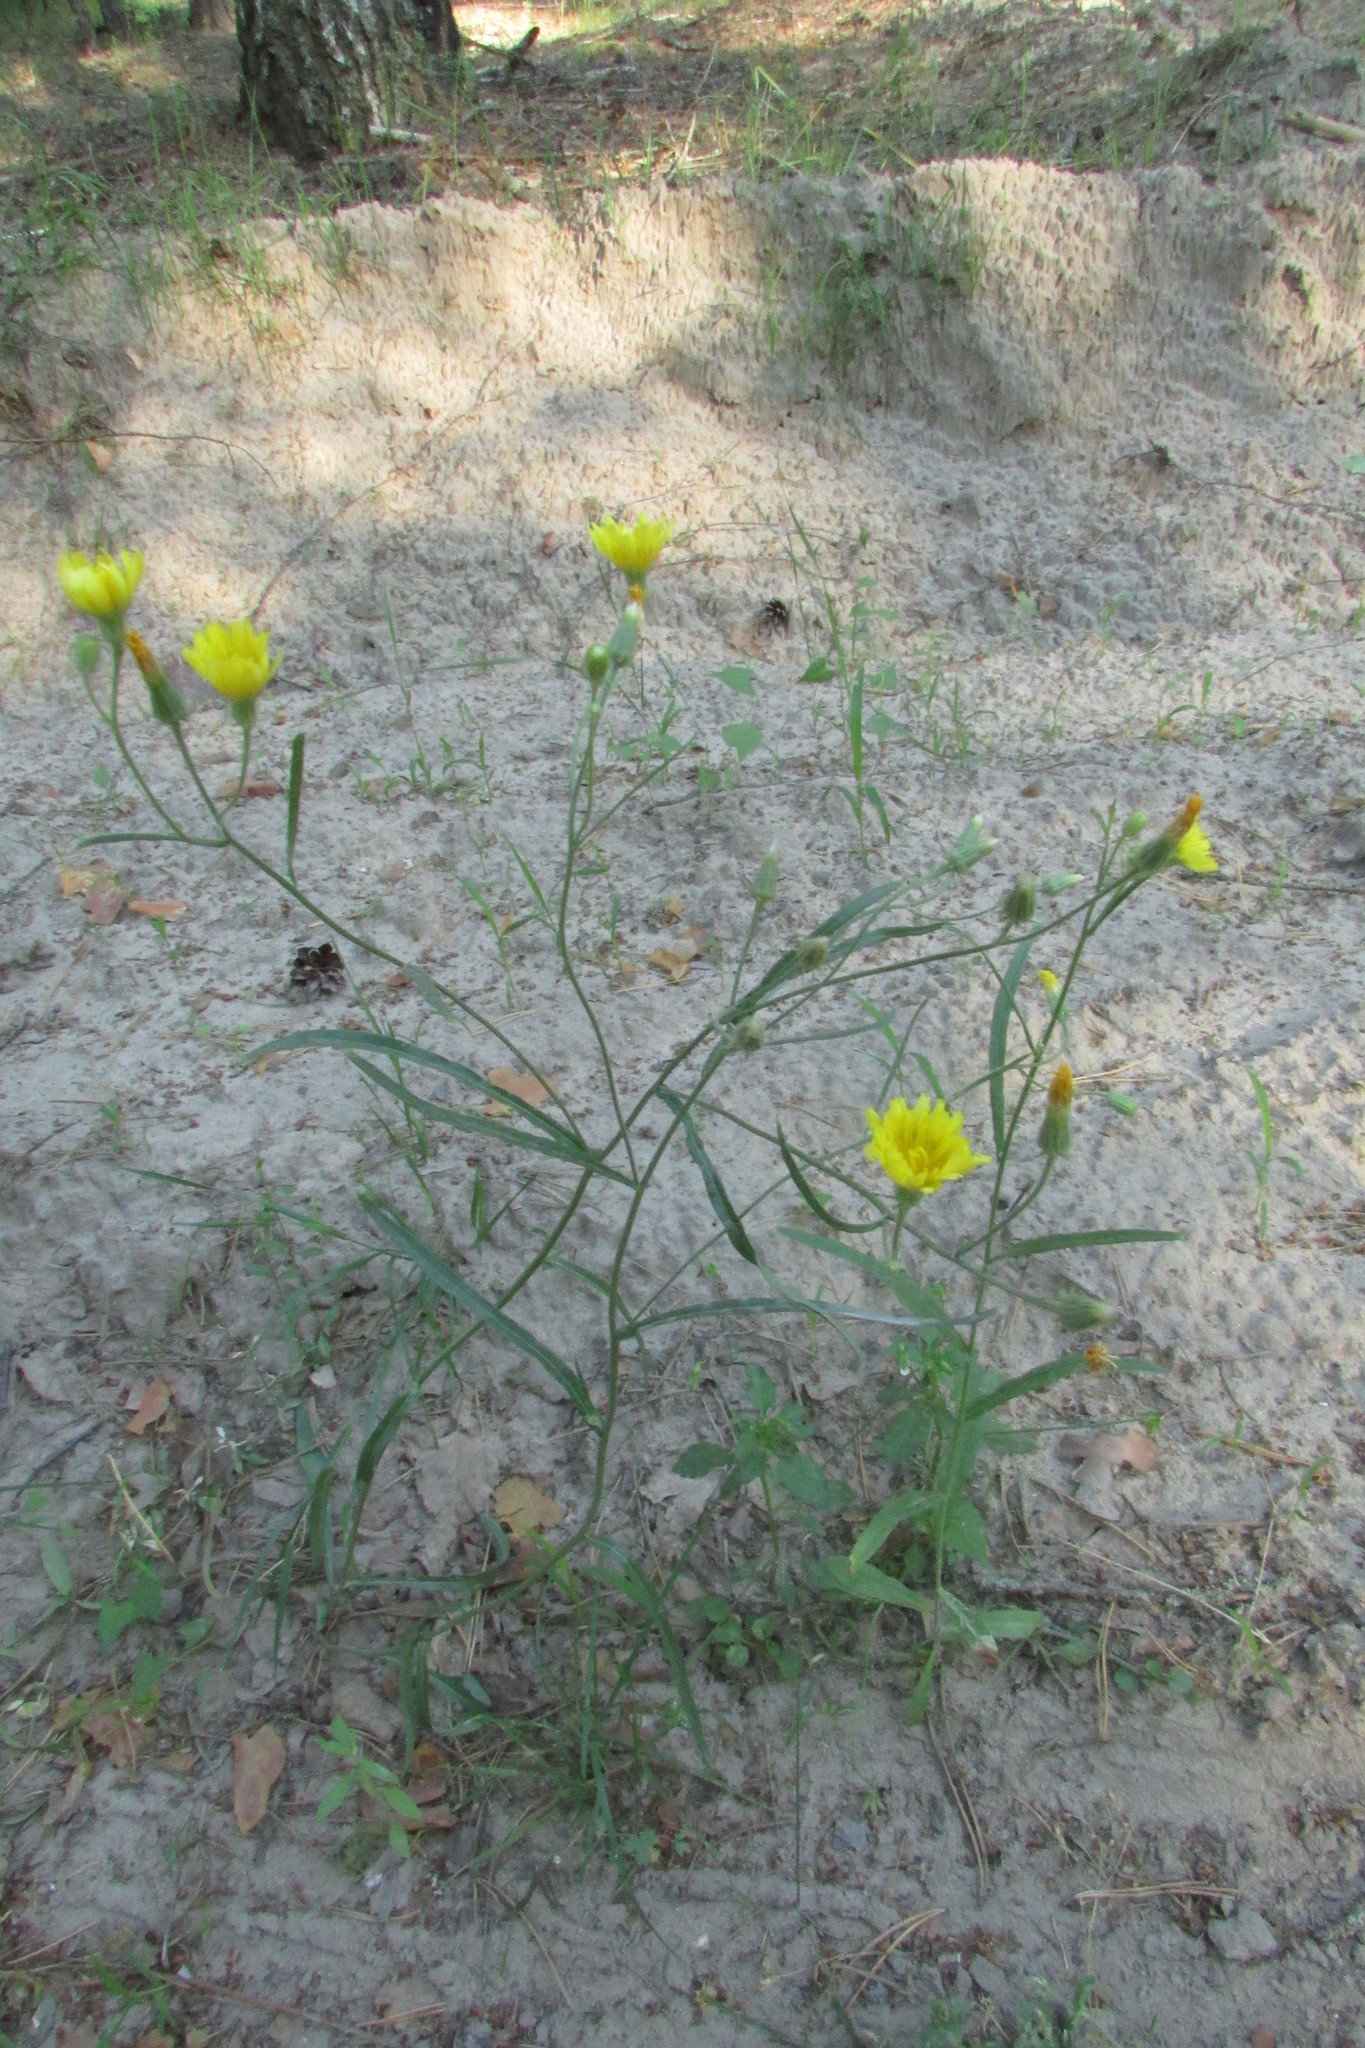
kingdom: Plantae
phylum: Tracheophyta
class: Magnoliopsida
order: Asterales
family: Asteraceae
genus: Crepis
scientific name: Crepis tectorum
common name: Narrow-leaved hawk's-beard
